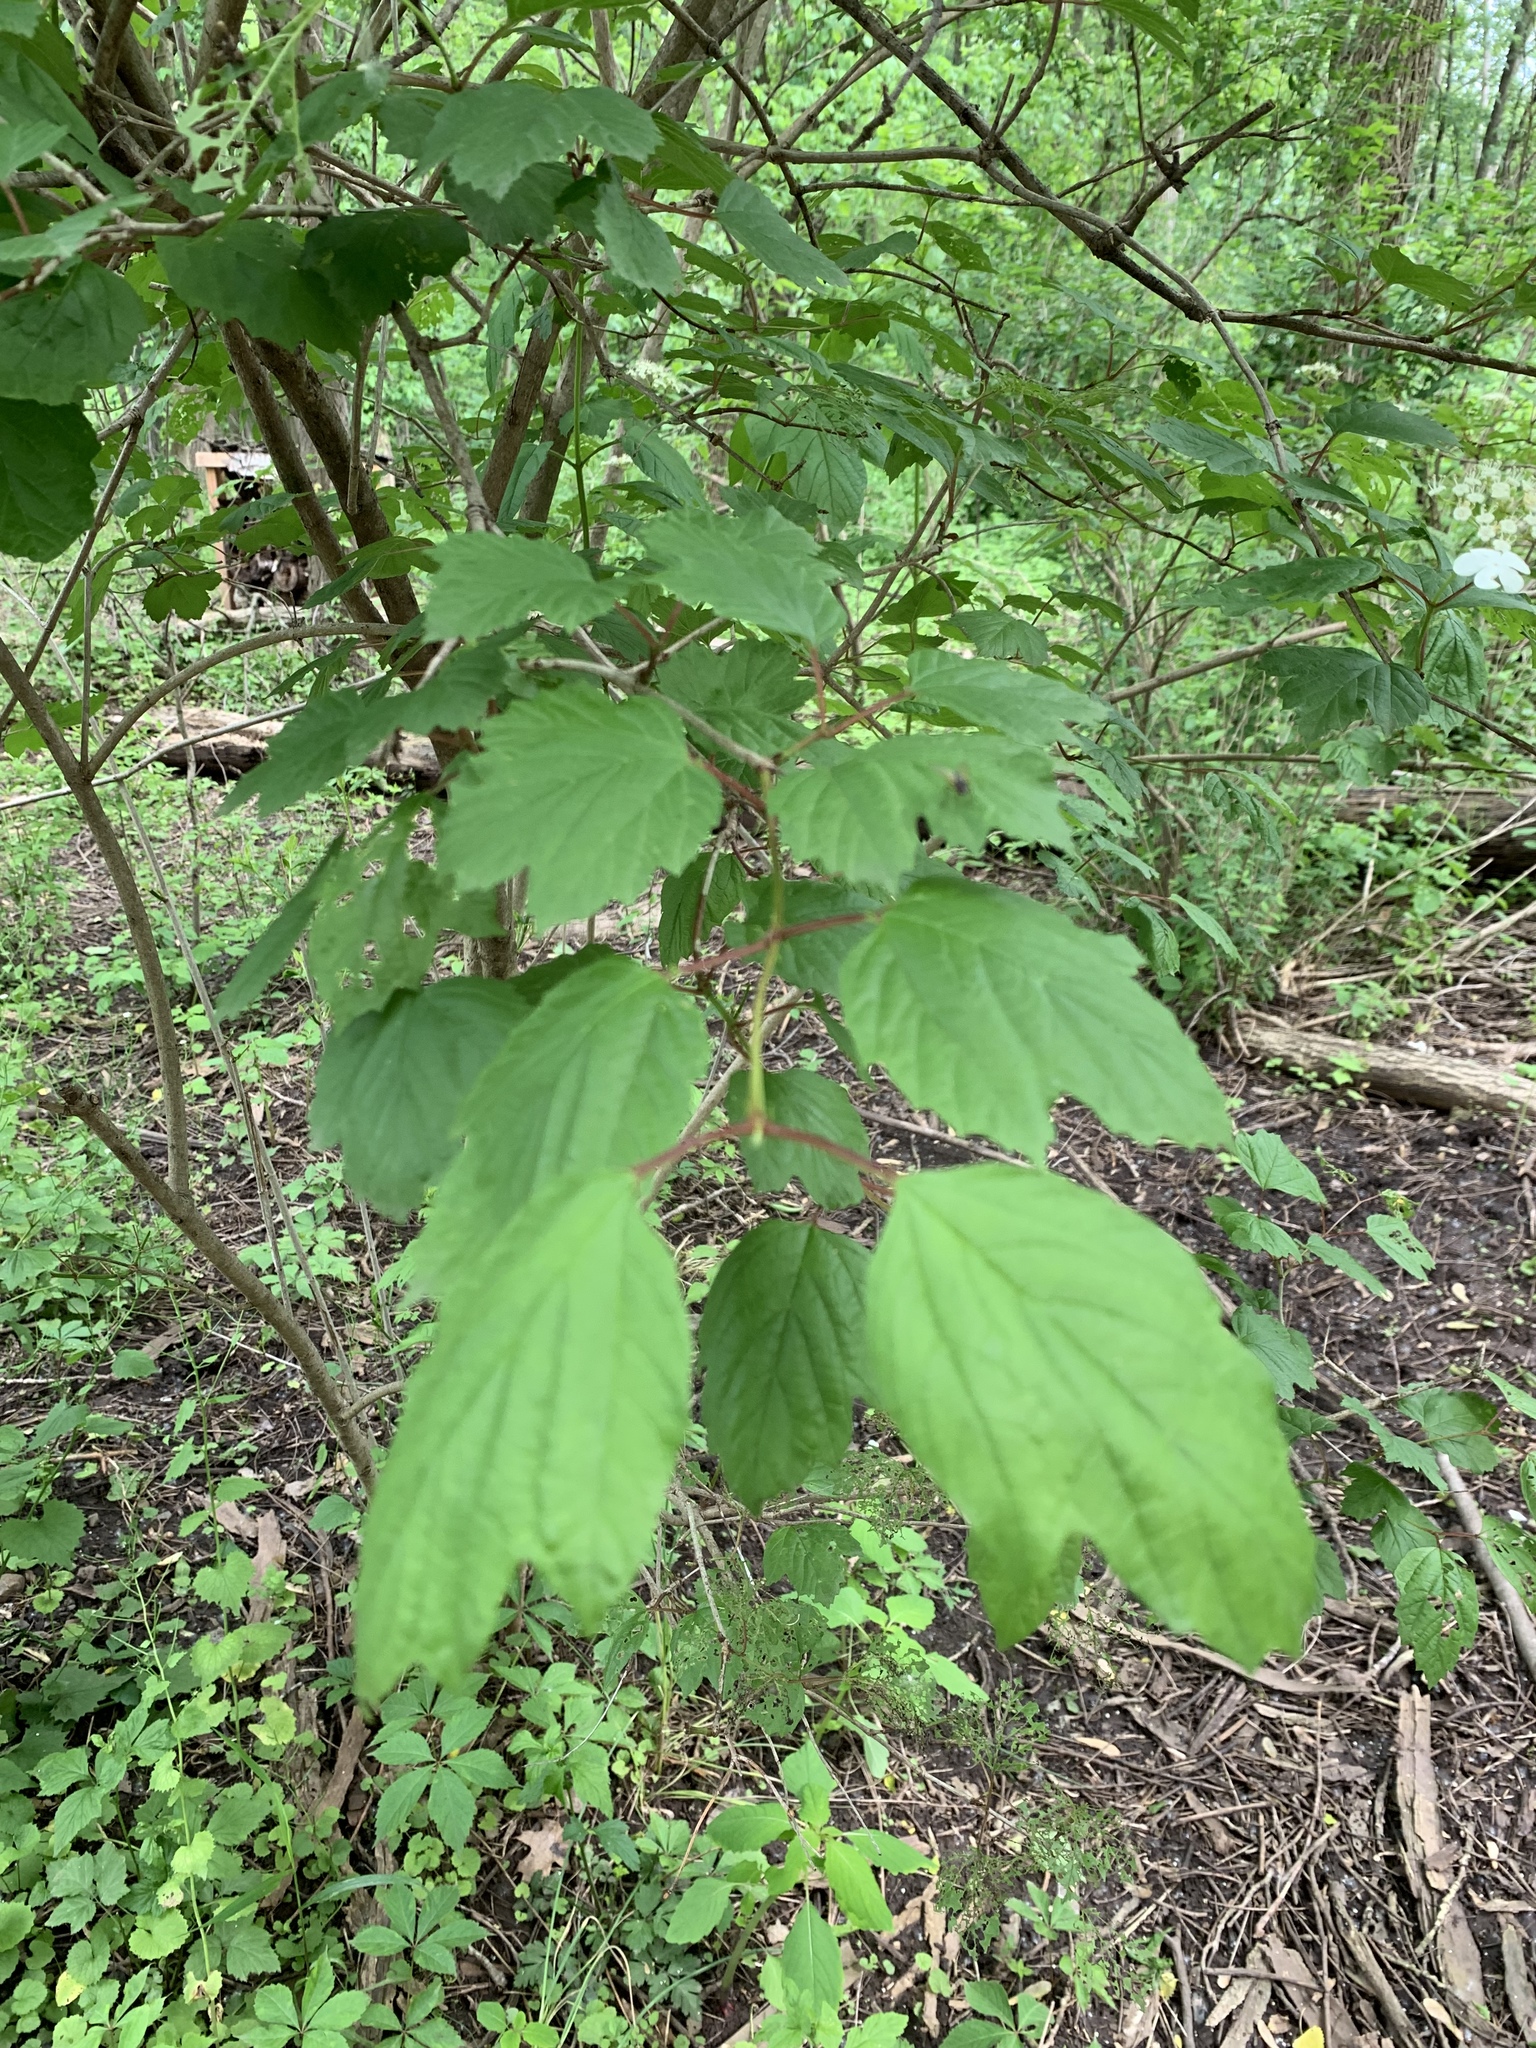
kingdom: Plantae
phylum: Tracheophyta
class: Magnoliopsida
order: Dipsacales
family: Viburnaceae
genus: Viburnum
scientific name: Viburnum opulus
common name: Guelder-rose
